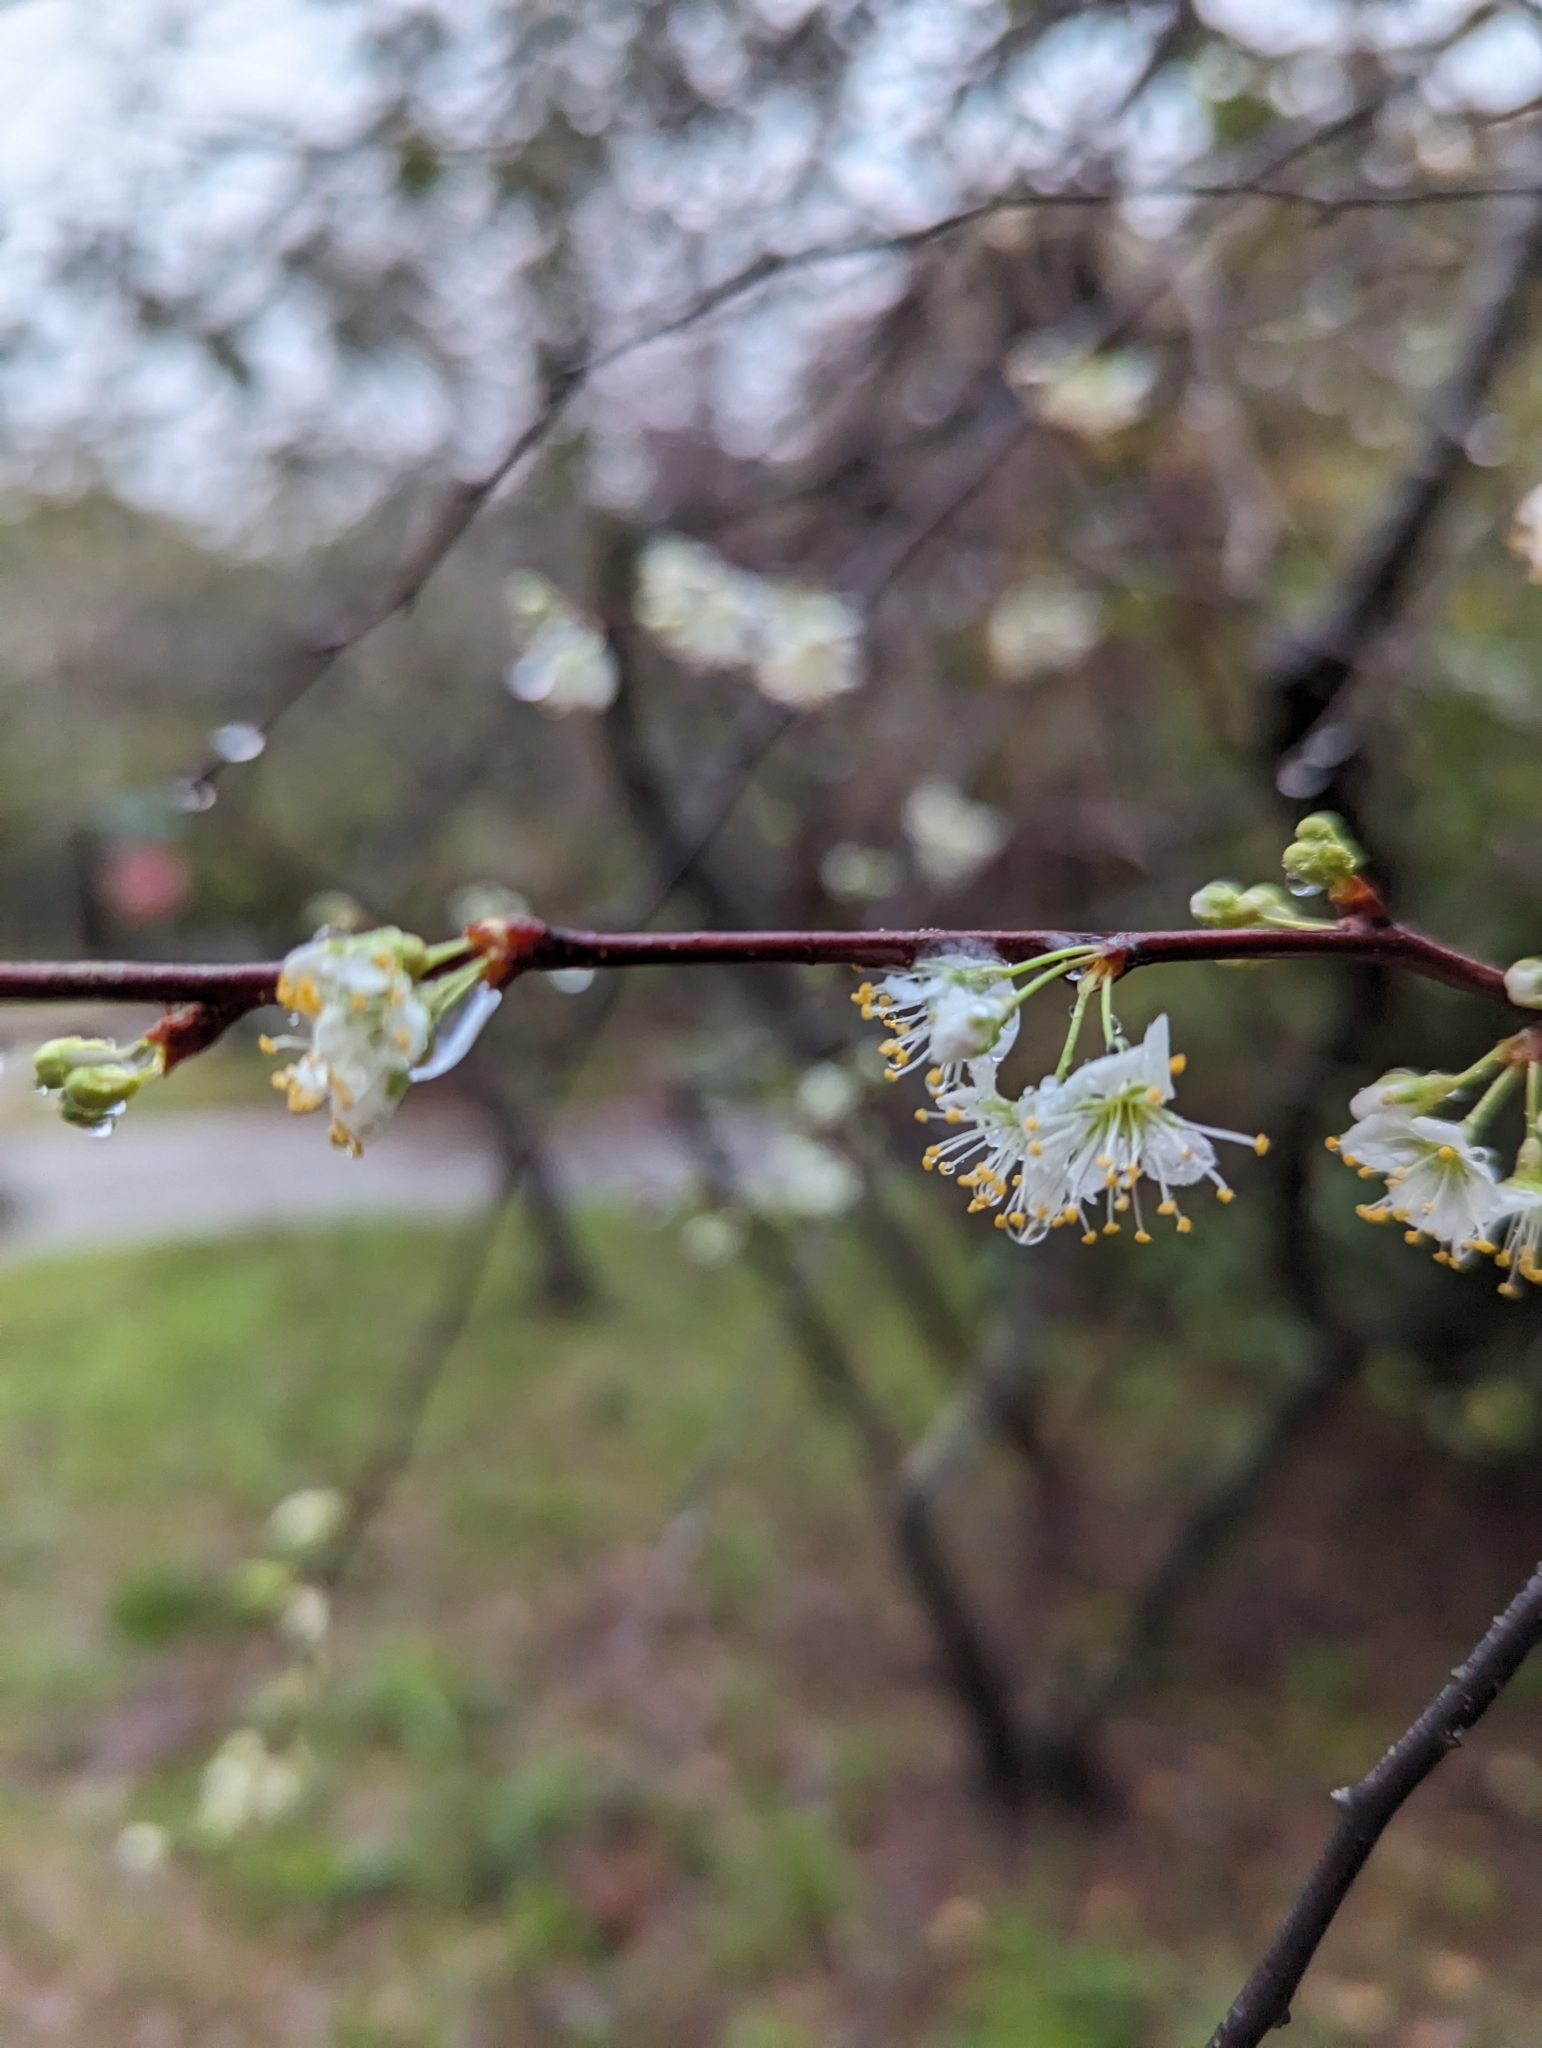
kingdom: Plantae
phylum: Tracheophyta
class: Magnoliopsida
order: Rosales
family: Rosaceae
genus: Prunus
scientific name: Prunus angustifolia
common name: Cherokee plum
